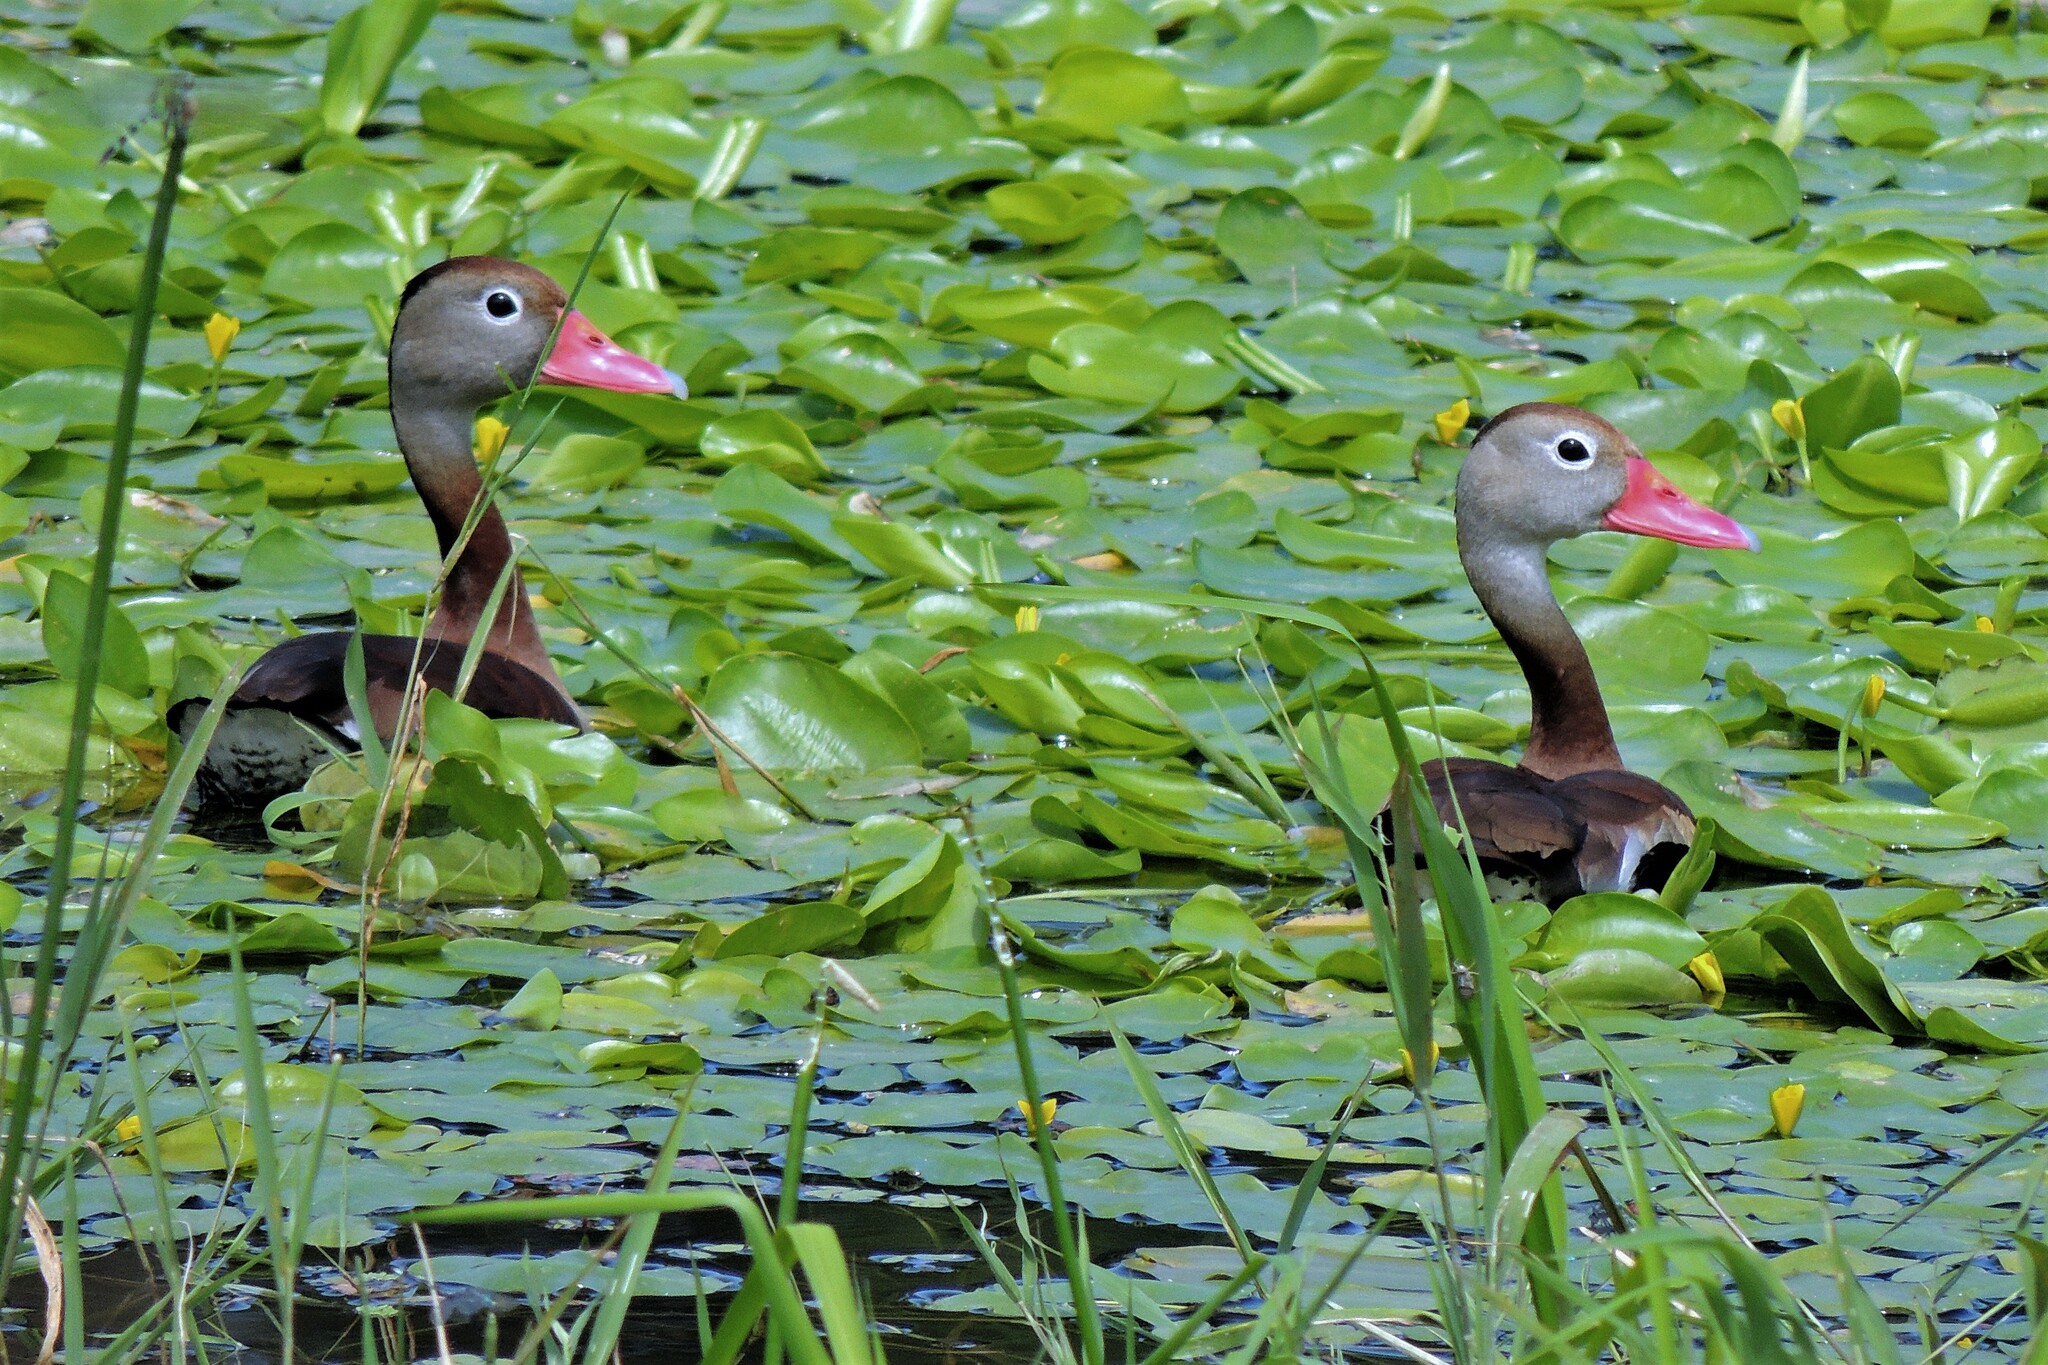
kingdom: Animalia
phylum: Chordata
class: Aves
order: Anseriformes
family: Anatidae
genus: Dendrocygna
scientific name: Dendrocygna autumnalis
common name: Black-bellied whistling duck
